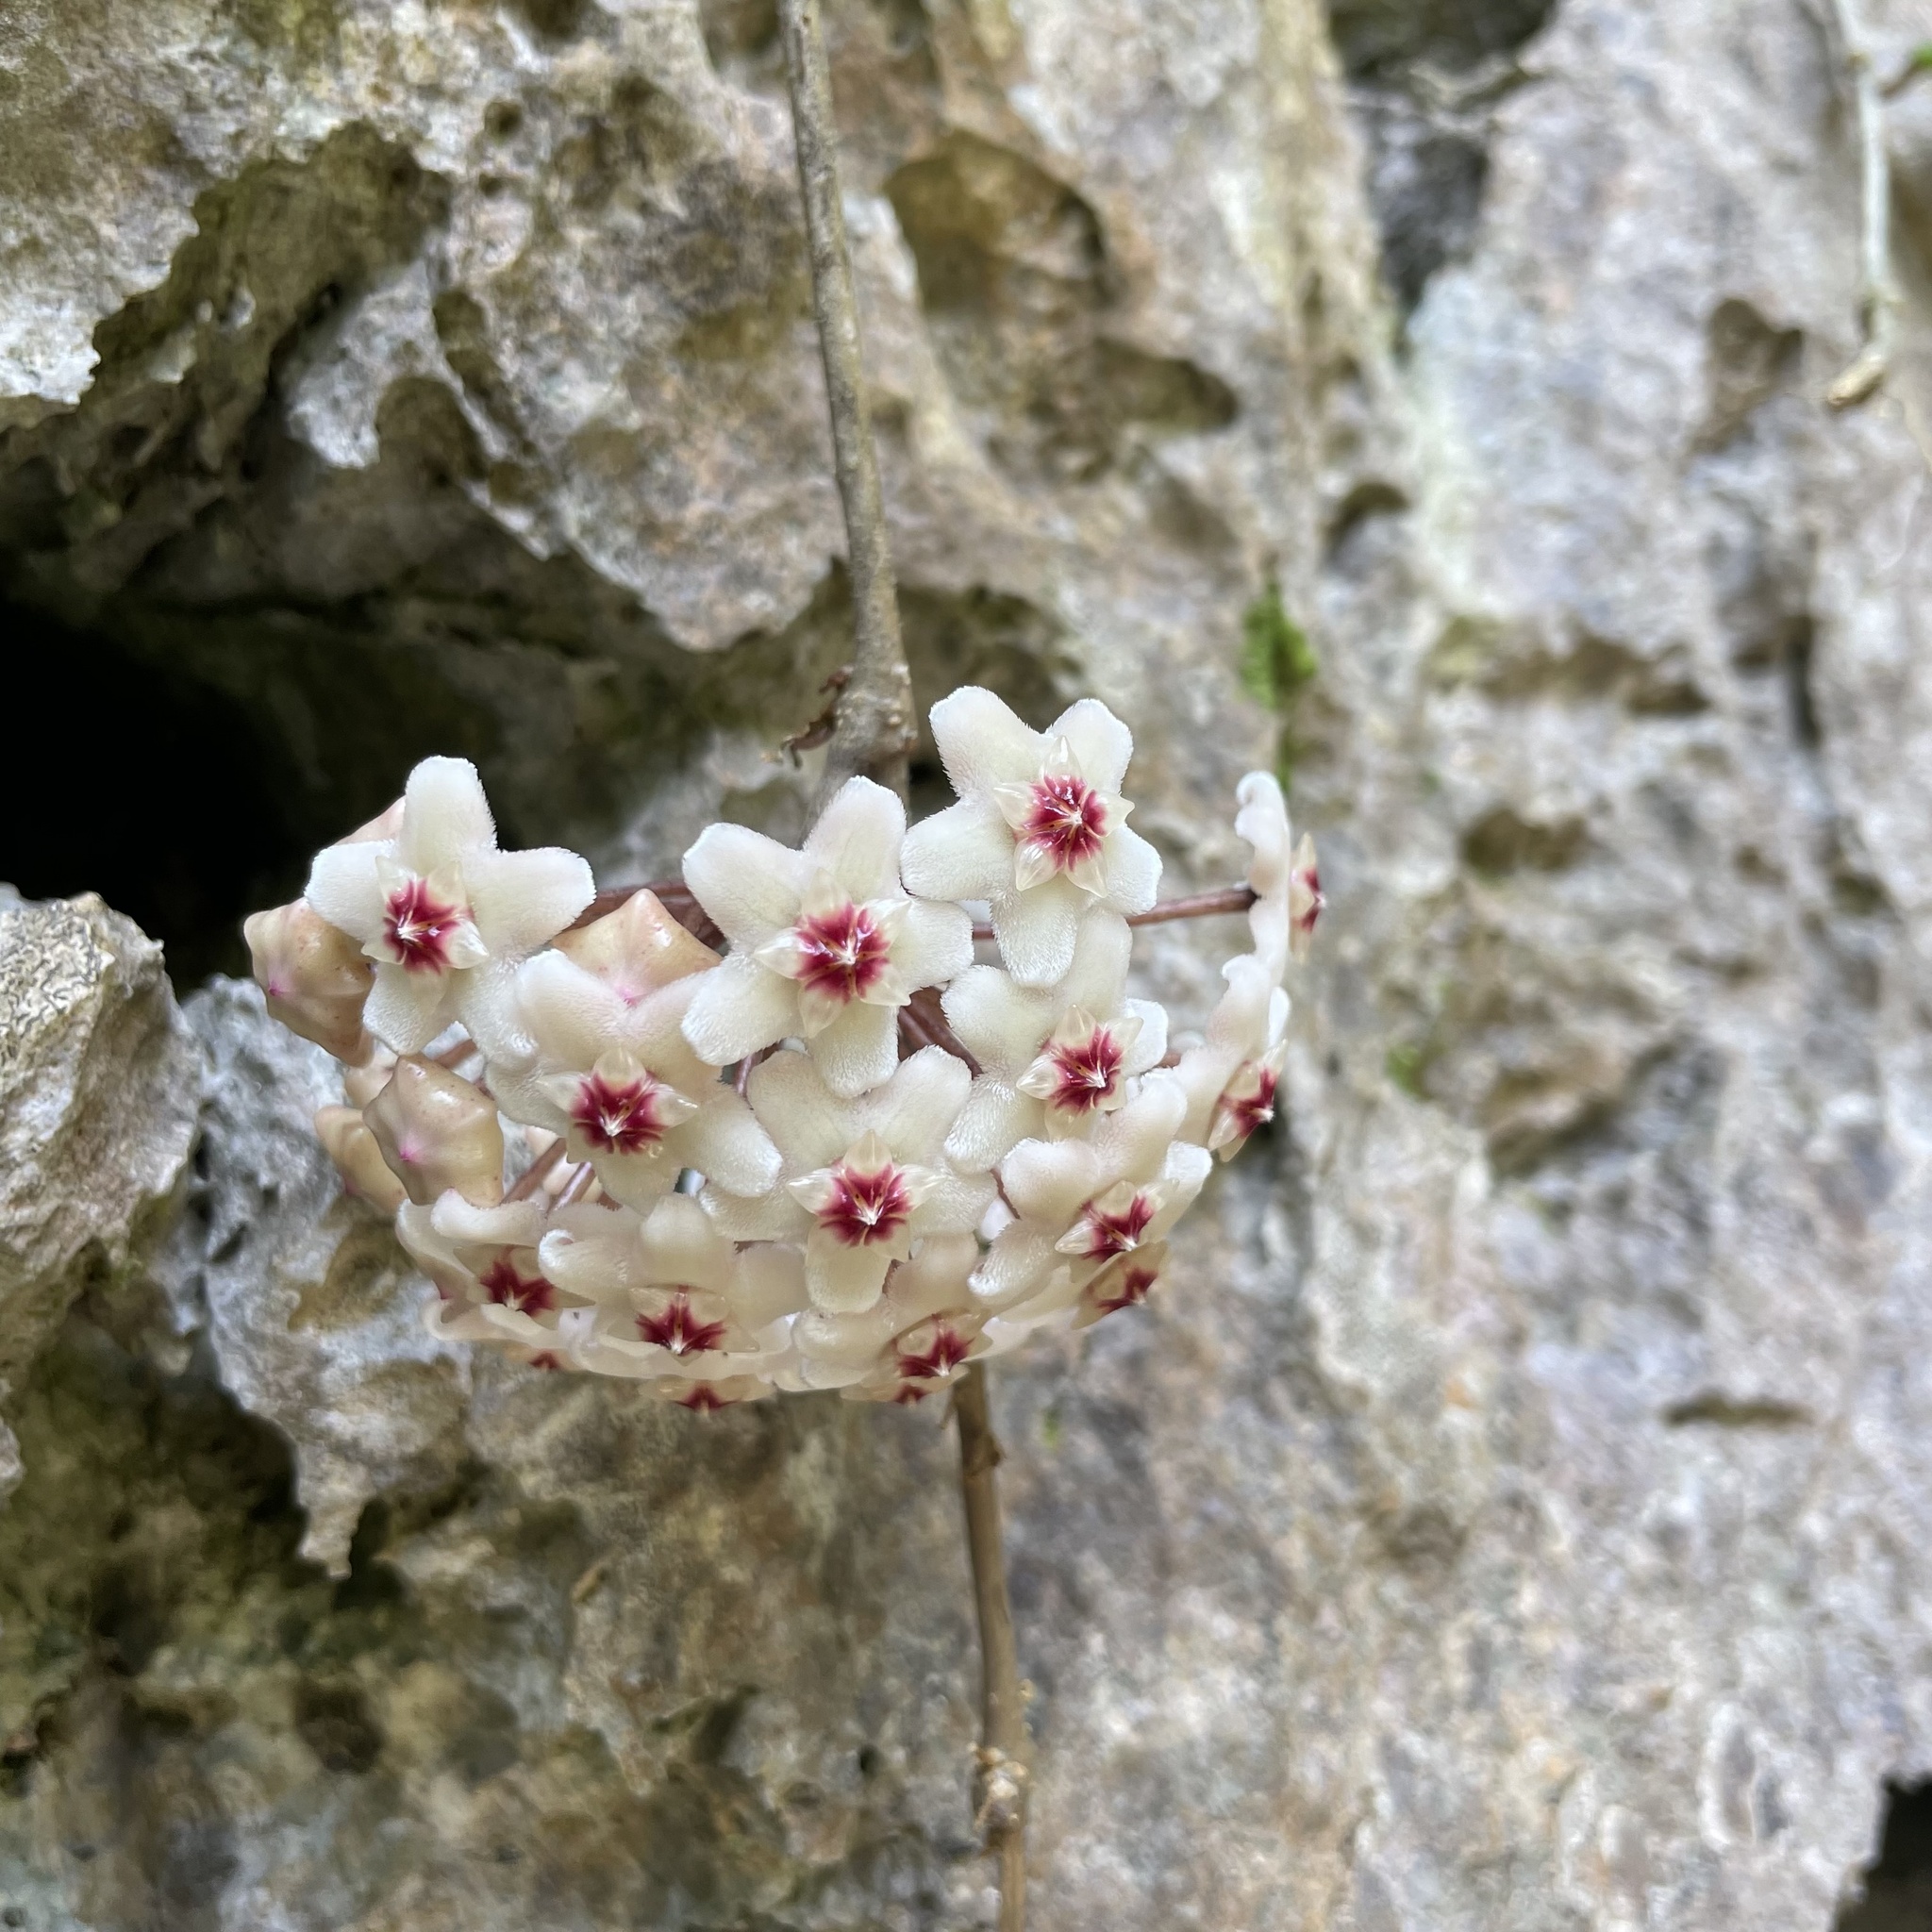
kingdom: Plantae
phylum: Tracheophyta
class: Magnoliopsida
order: Gentianales
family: Apocynaceae
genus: Hoya
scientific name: Hoya carnosa
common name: Honeyplant
